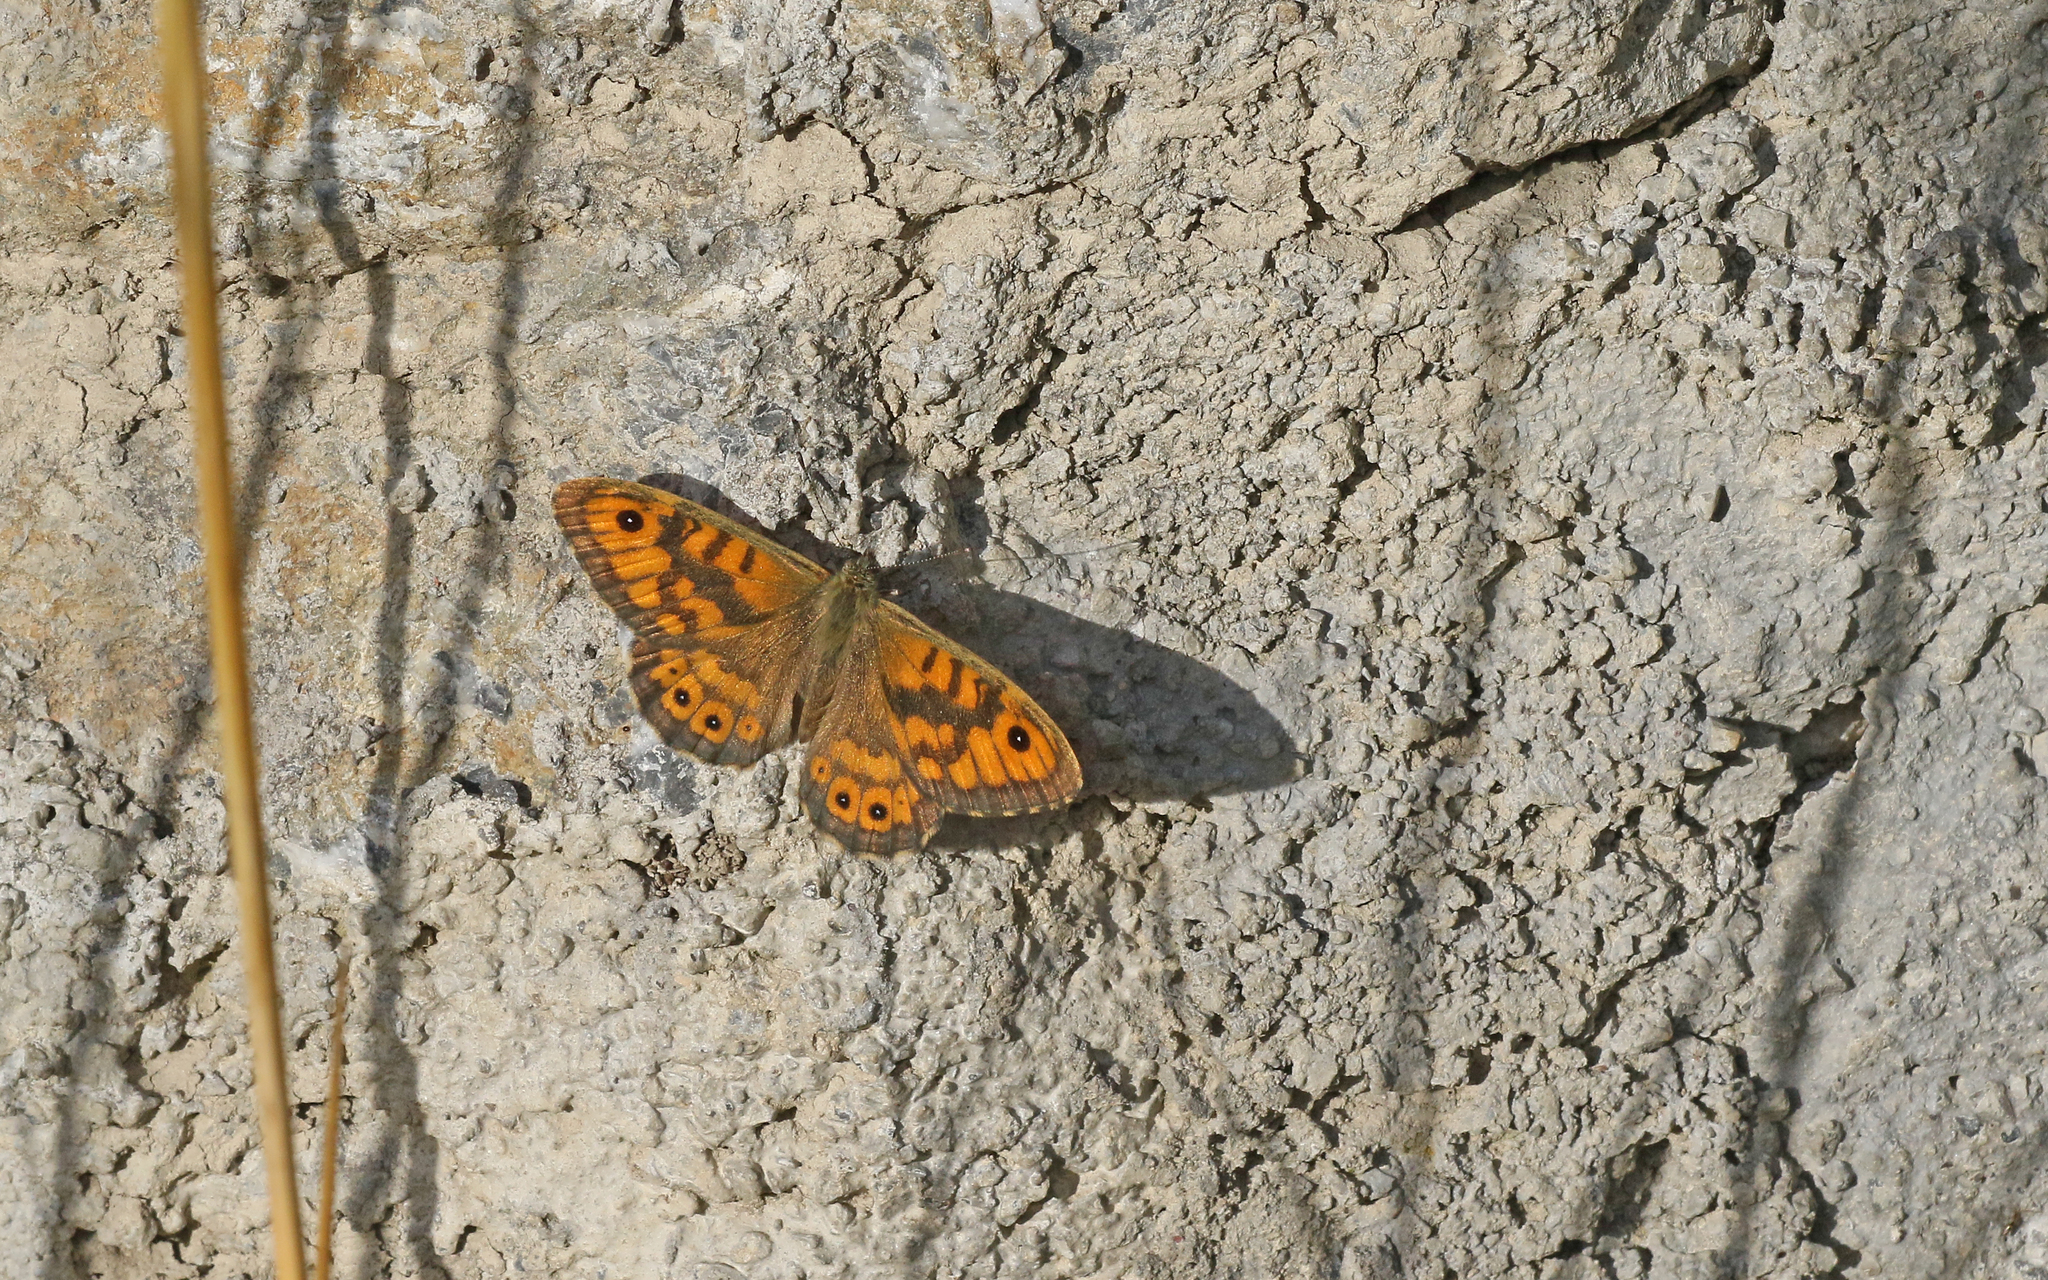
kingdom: Animalia
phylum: Arthropoda
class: Insecta
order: Lepidoptera
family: Nymphalidae
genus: Pararge
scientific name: Pararge Lasiommata megera
